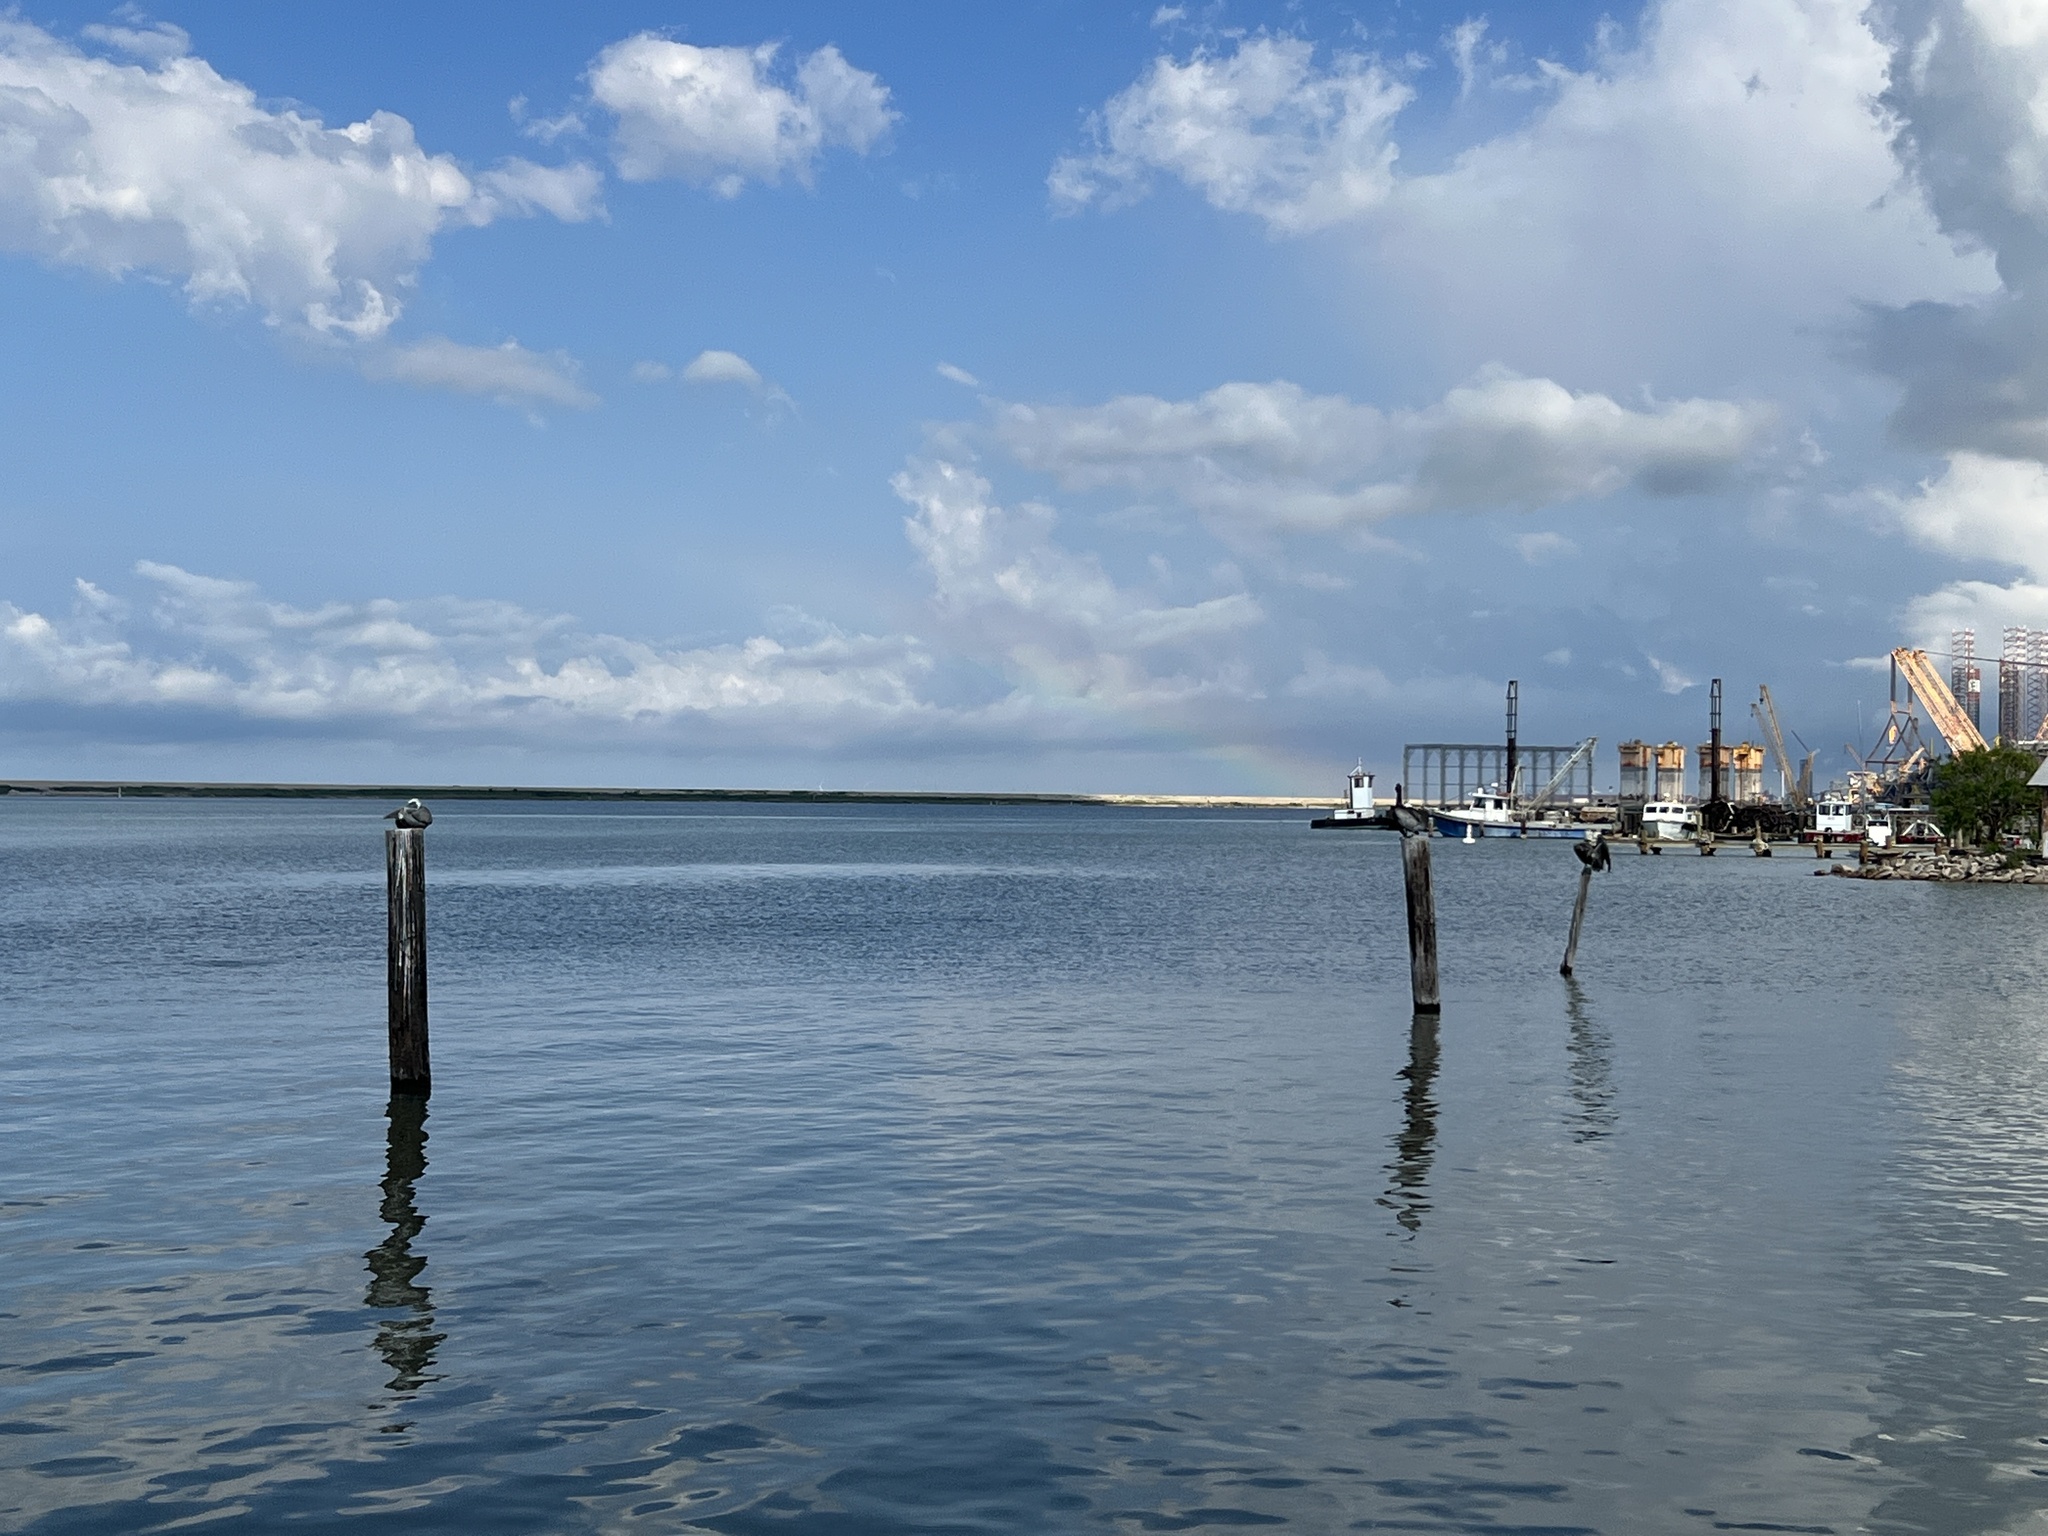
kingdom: Animalia
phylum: Chordata
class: Aves
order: Pelecaniformes
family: Pelecanidae
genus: Pelecanus
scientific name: Pelecanus occidentalis
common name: Brown pelican
